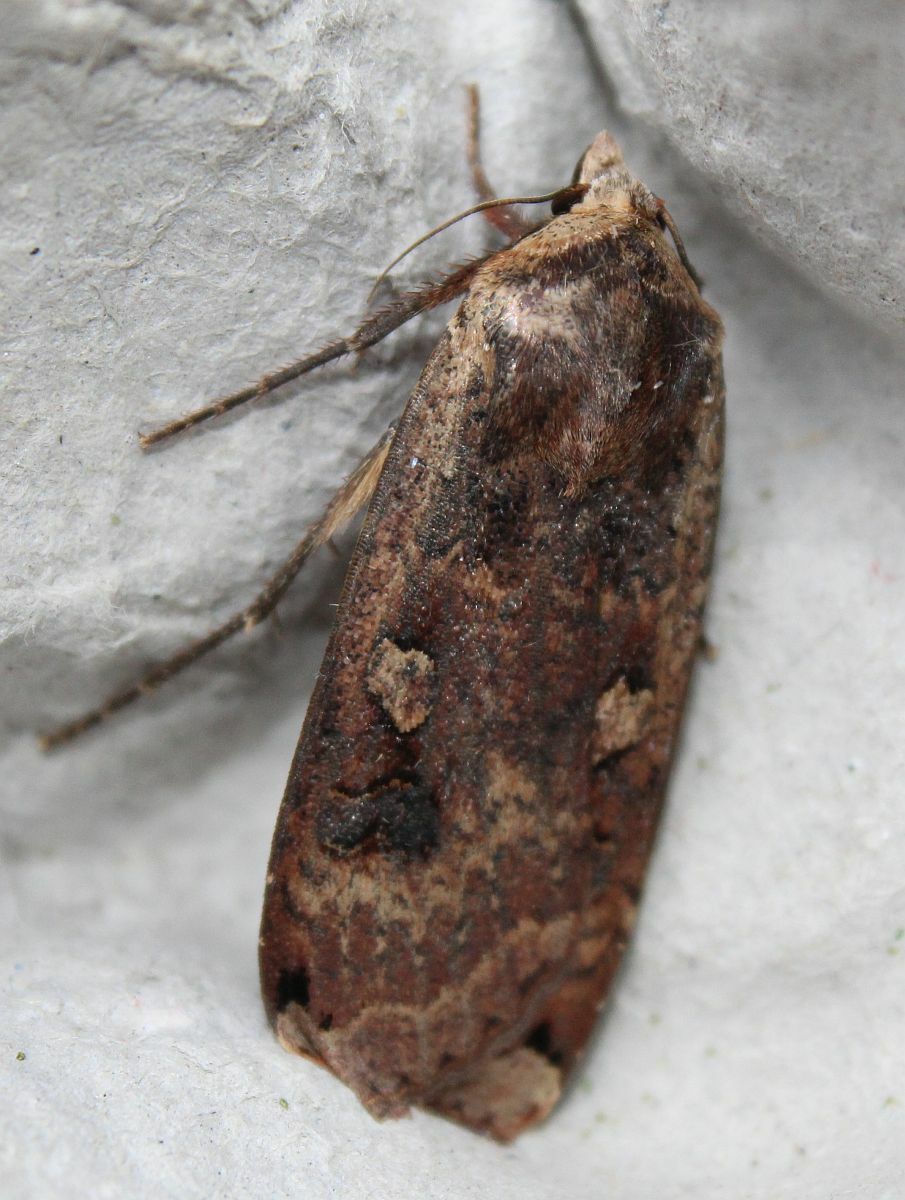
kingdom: Animalia
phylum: Arthropoda
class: Insecta
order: Lepidoptera
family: Noctuidae
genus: Noctua
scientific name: Noctua pronuba
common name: Large yellow underwing
